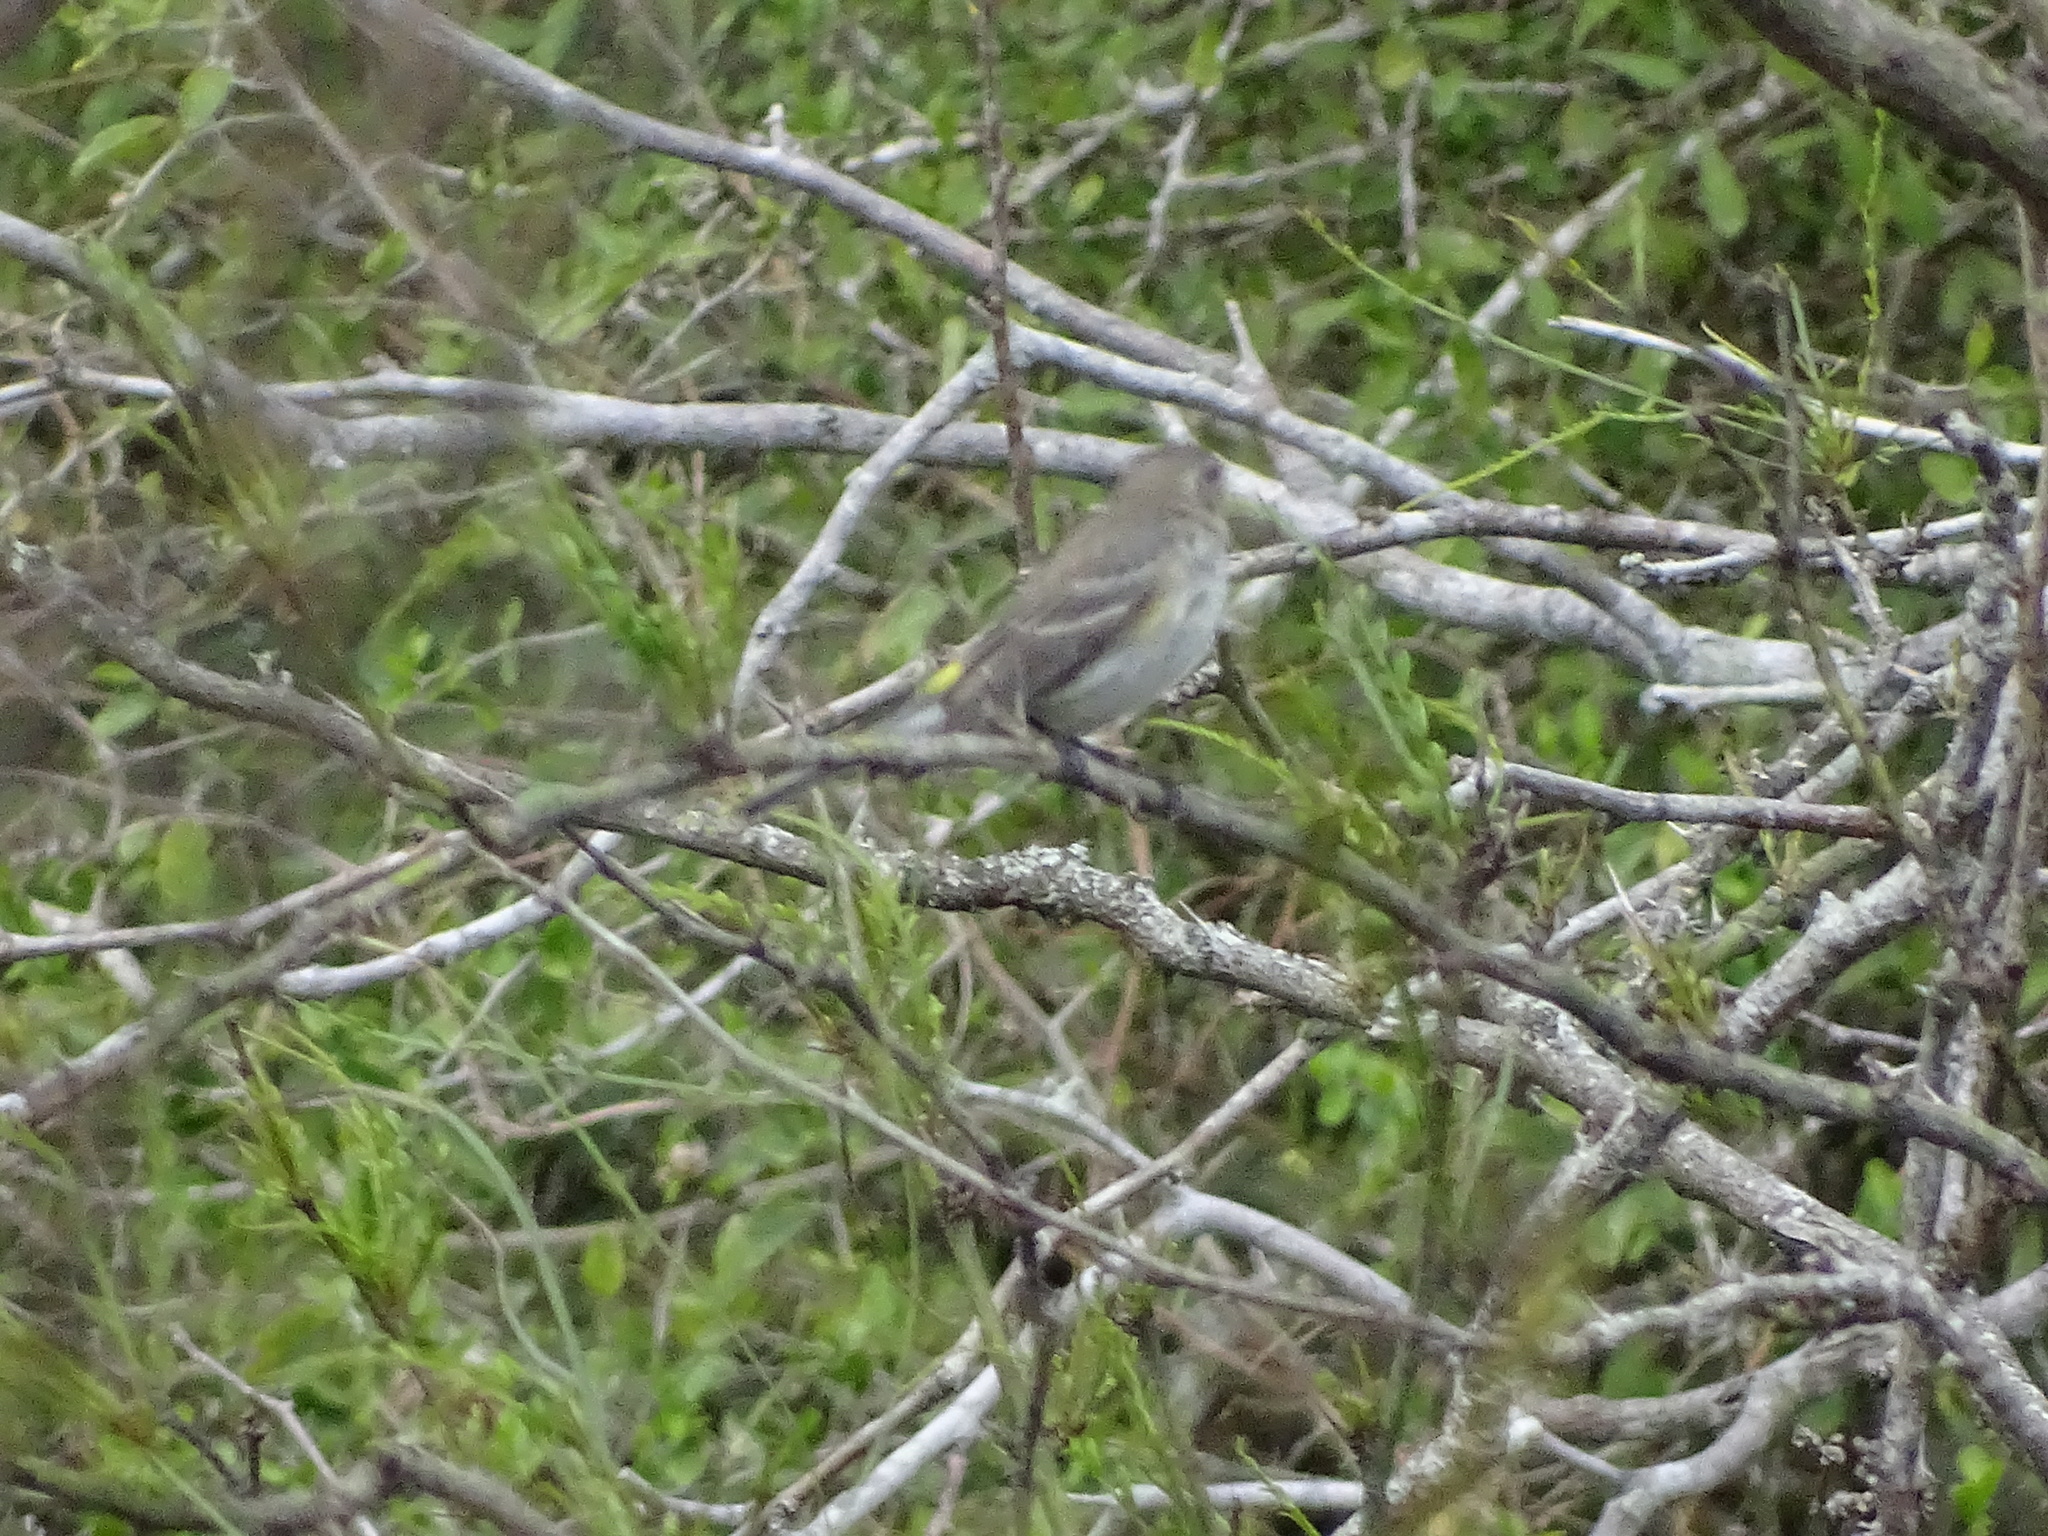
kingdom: Animalia
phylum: Chordata
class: Aves
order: Passeriformes
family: Parulidae
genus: Setophaga
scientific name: Setophaga coronata
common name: Myrtle warbler
